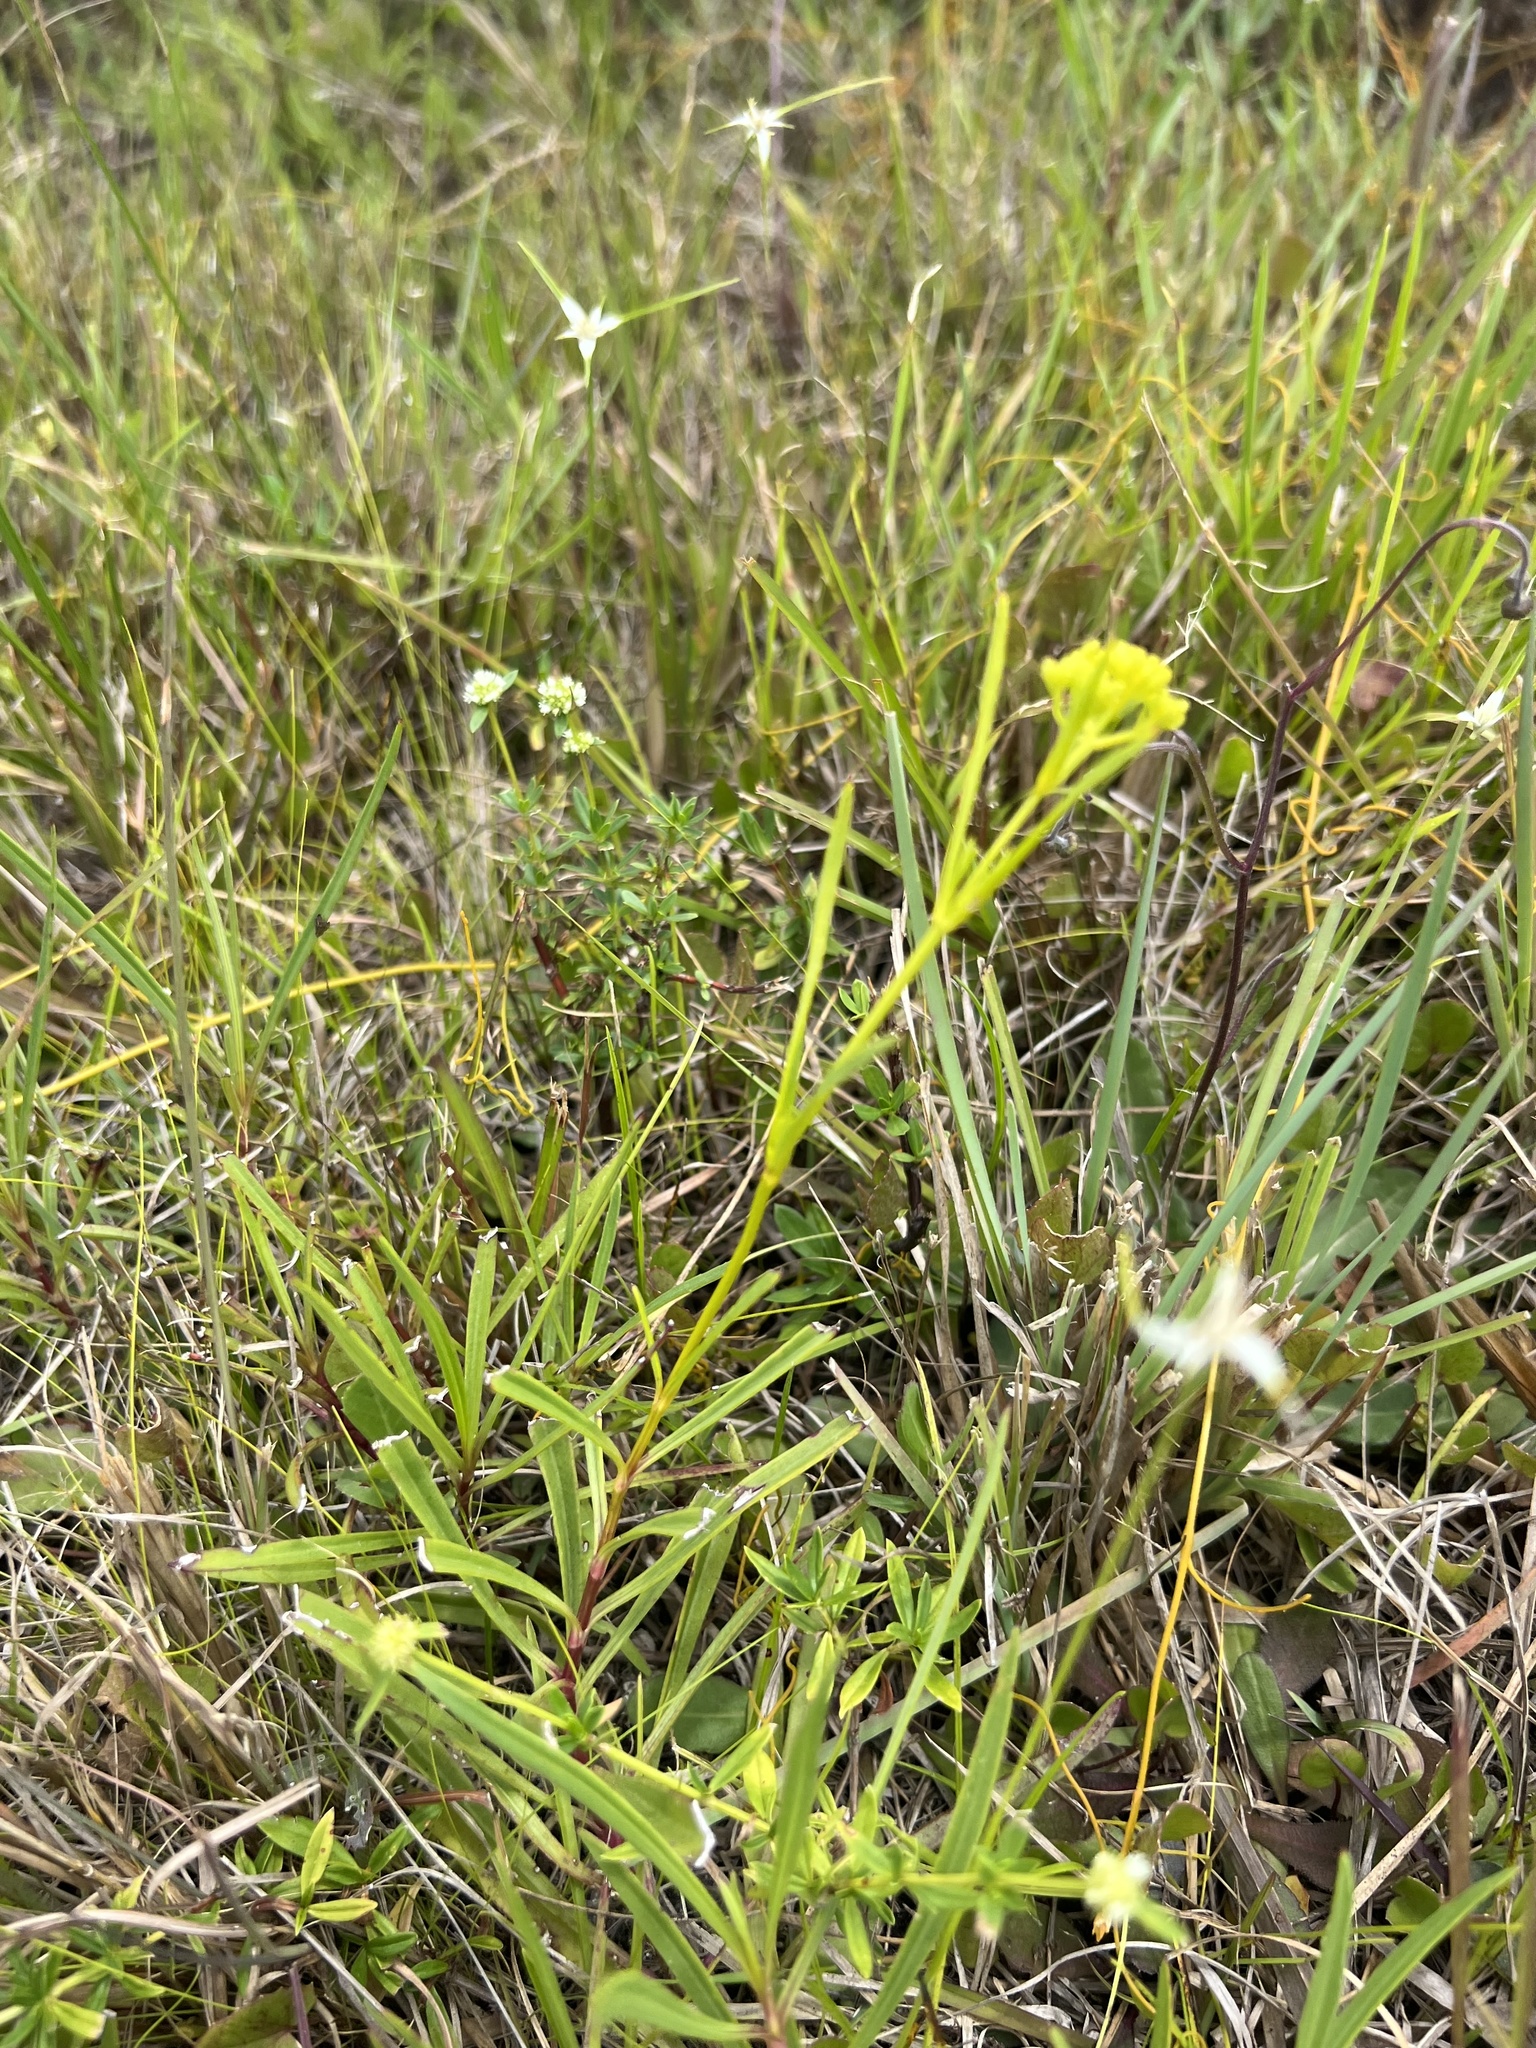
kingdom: Plantae
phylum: Tracheophyta
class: Magnoliopsida
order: Asterales
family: Asteraceae
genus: Flaveria
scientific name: Flaveria linearis
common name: Yellowtop
